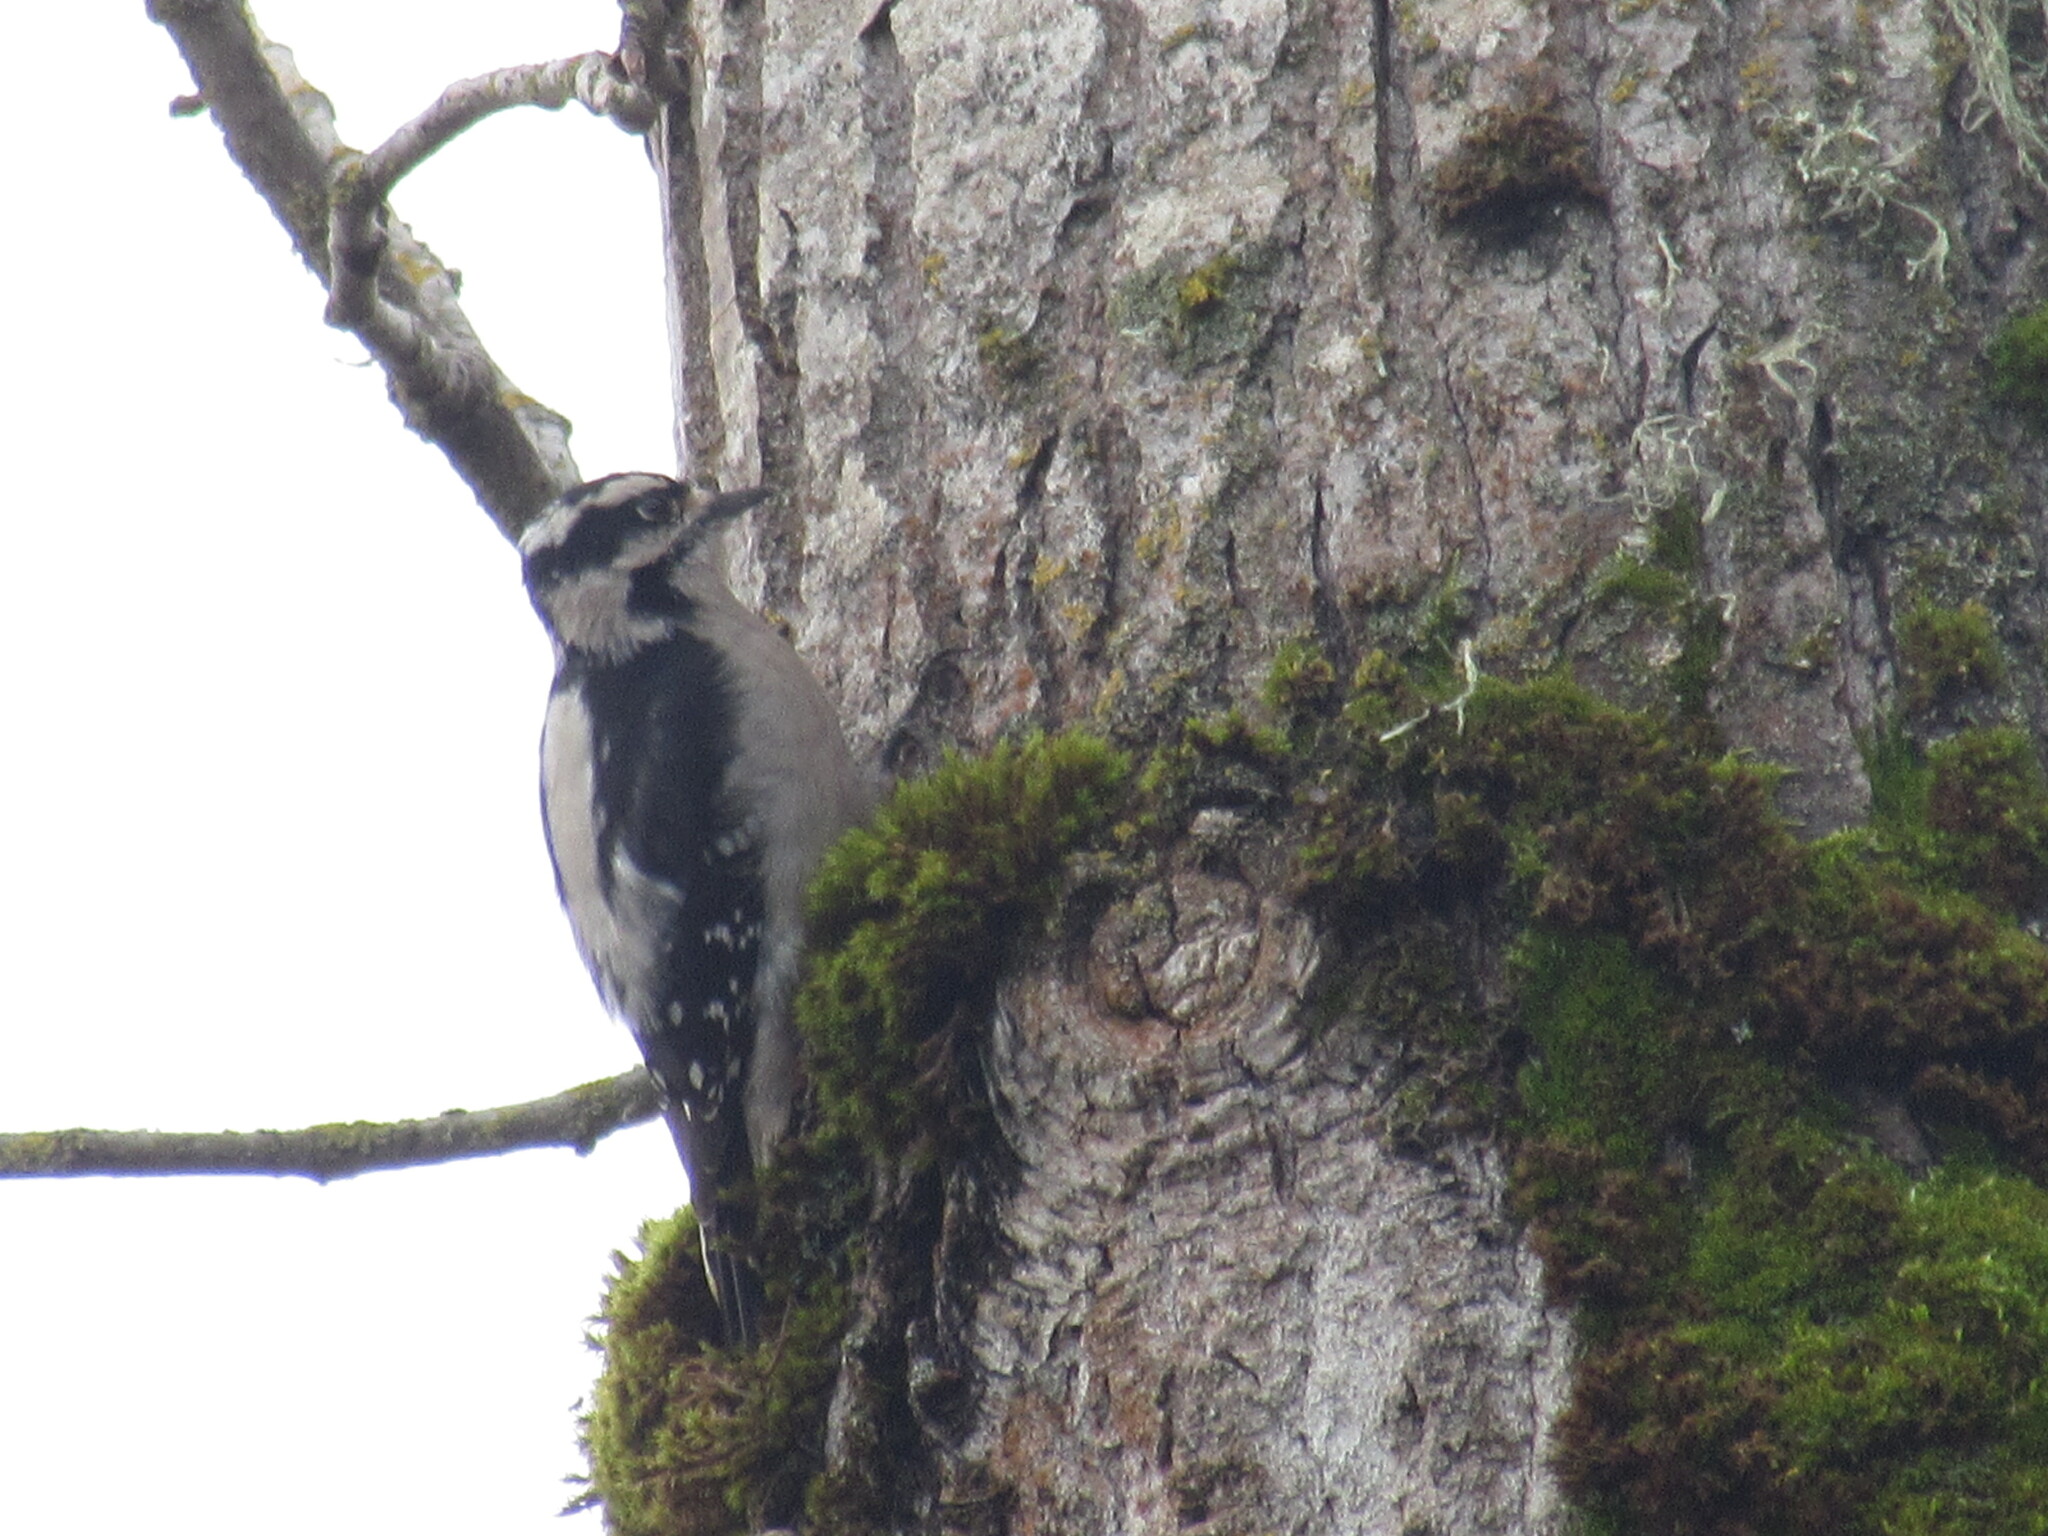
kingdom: Animalia
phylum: Chordata
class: Aves
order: Piciformes
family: Picidae
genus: Dryobates
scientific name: Dryobates pubescens
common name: Downy woodpecker
